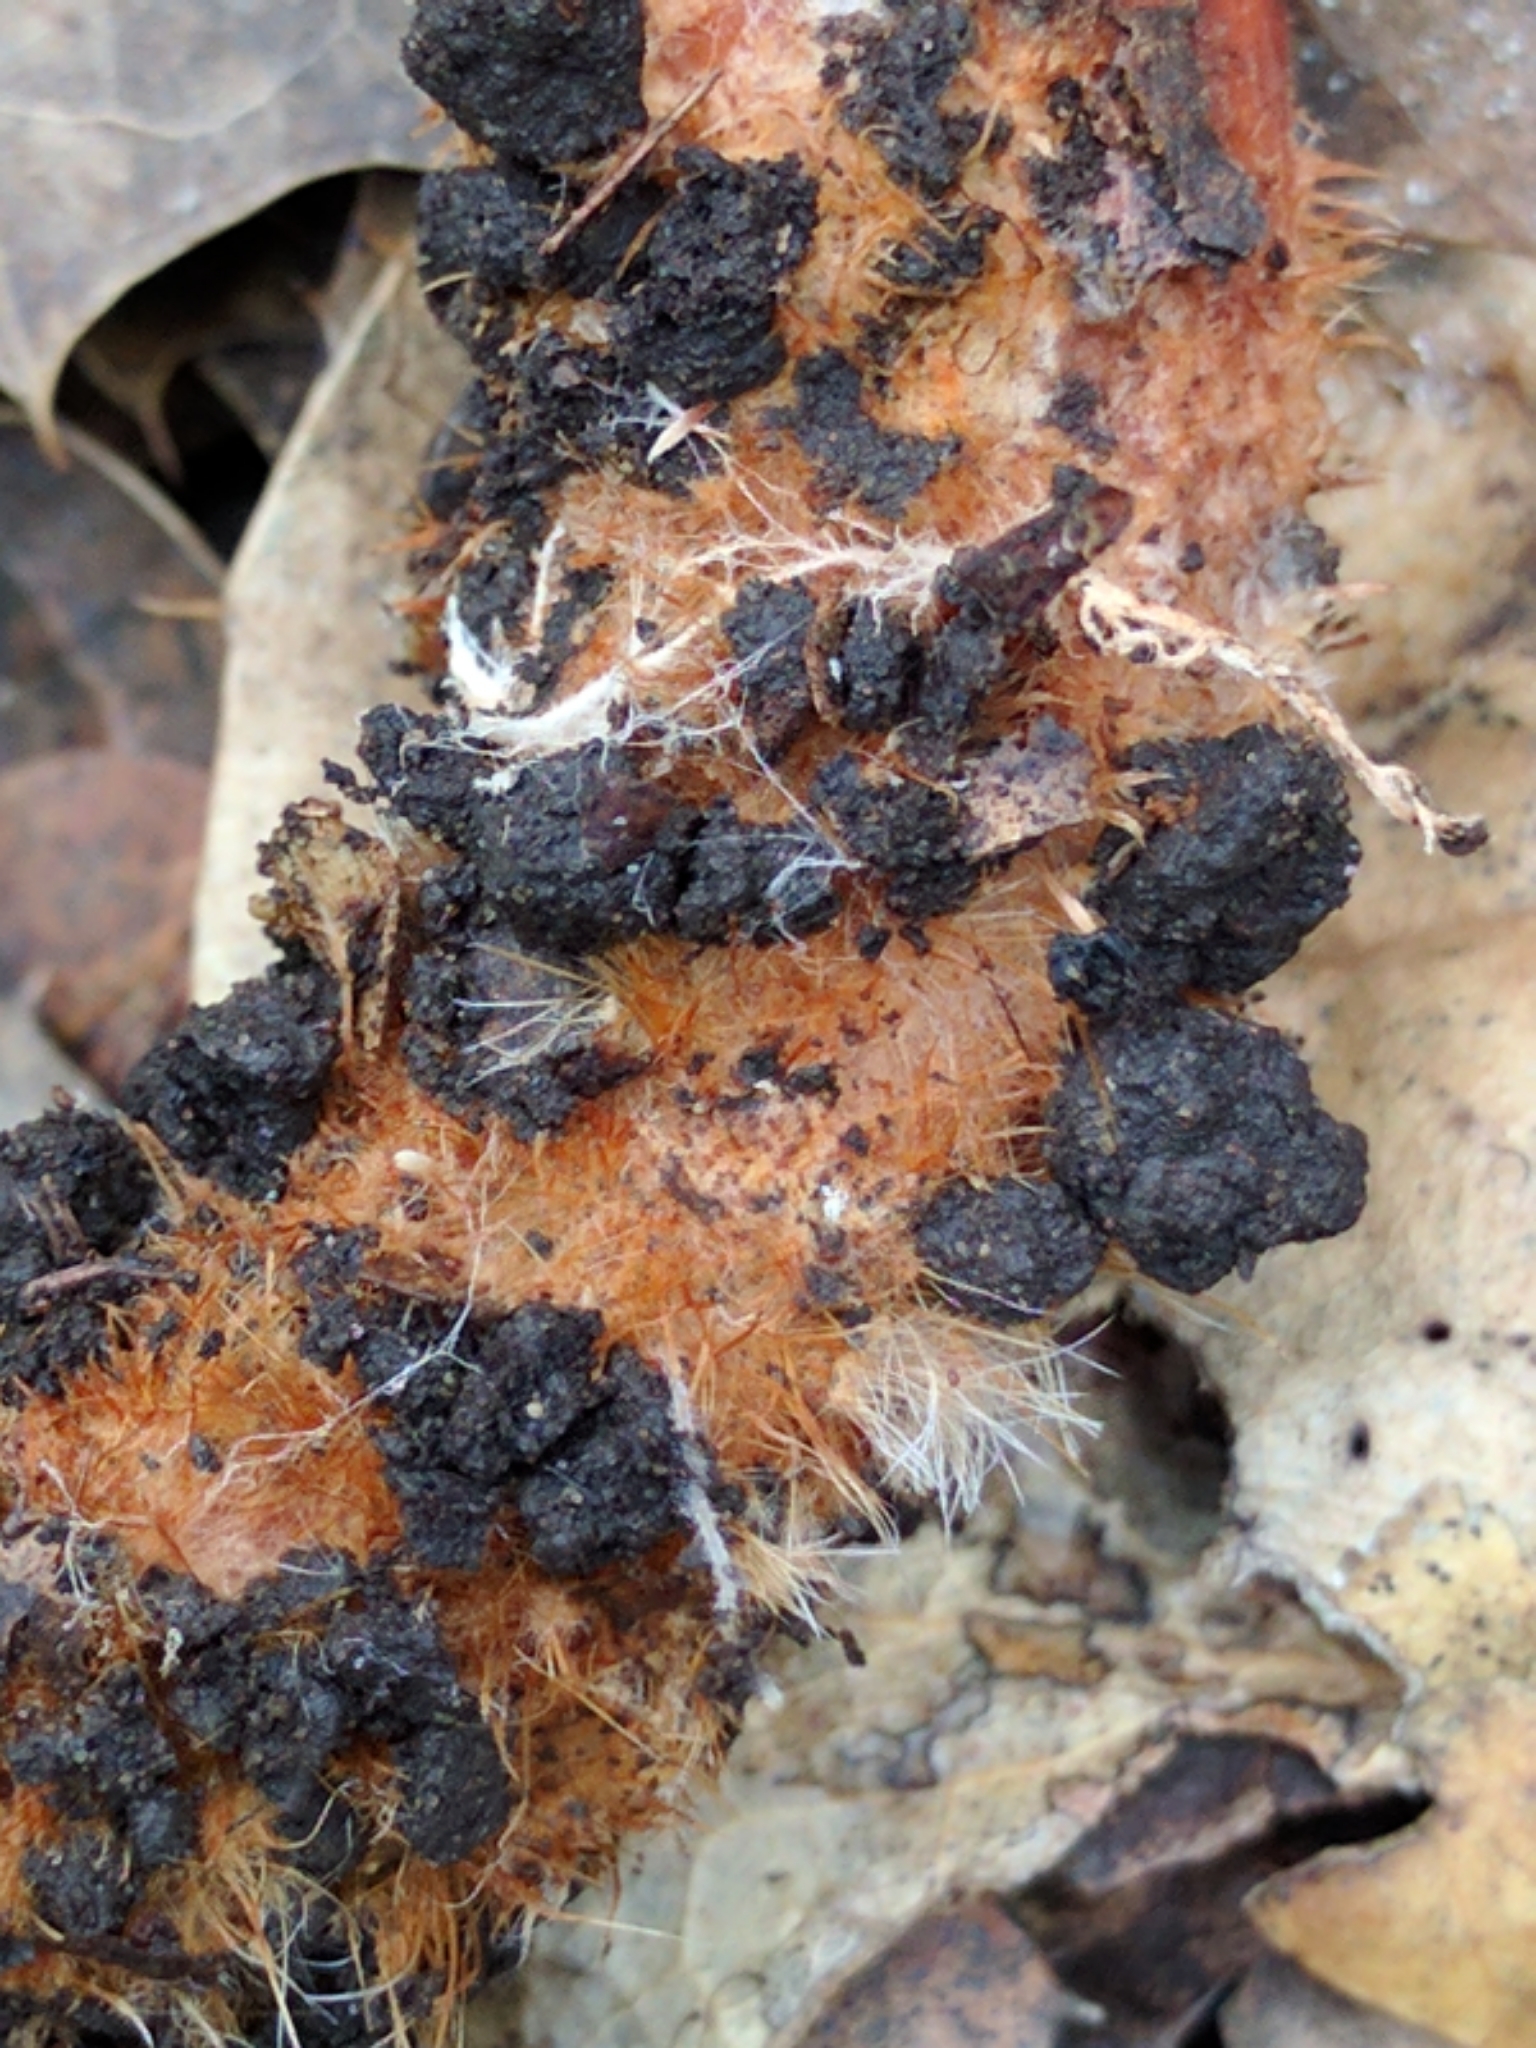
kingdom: Fungi
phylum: Basidiomycota
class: Agaricomycetes
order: Russulales
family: Russulaceae
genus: Lactarius
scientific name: Lactarius rufulus
